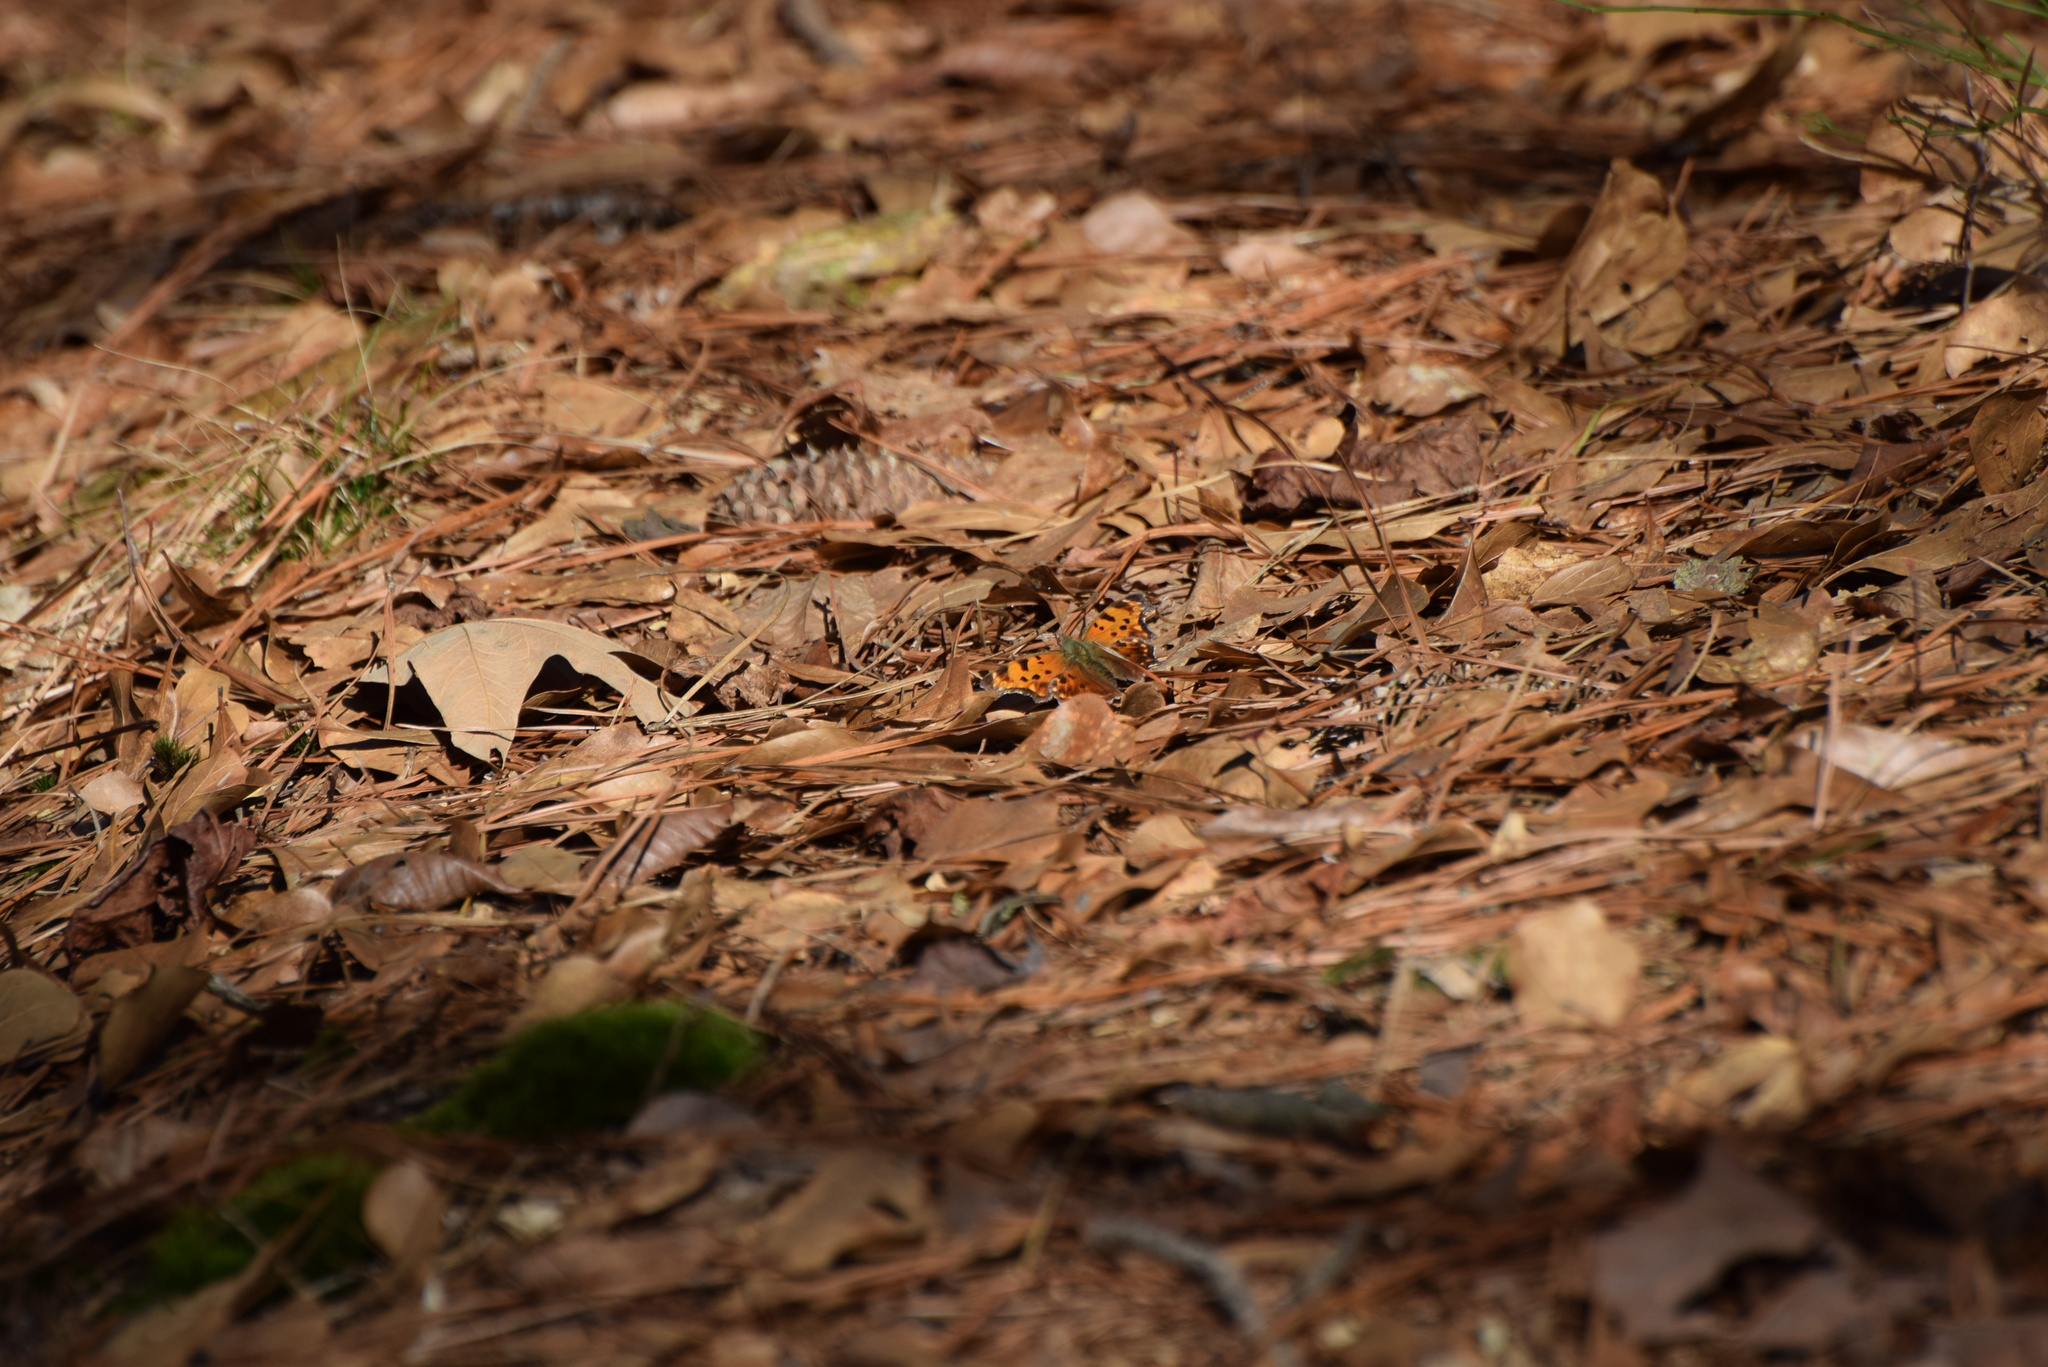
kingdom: Animalia
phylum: Arthropoda
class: Insecta
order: Lepidoptera
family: Nymphalidae
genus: Polygonia
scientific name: Polygonia comma
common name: Eastern comma
